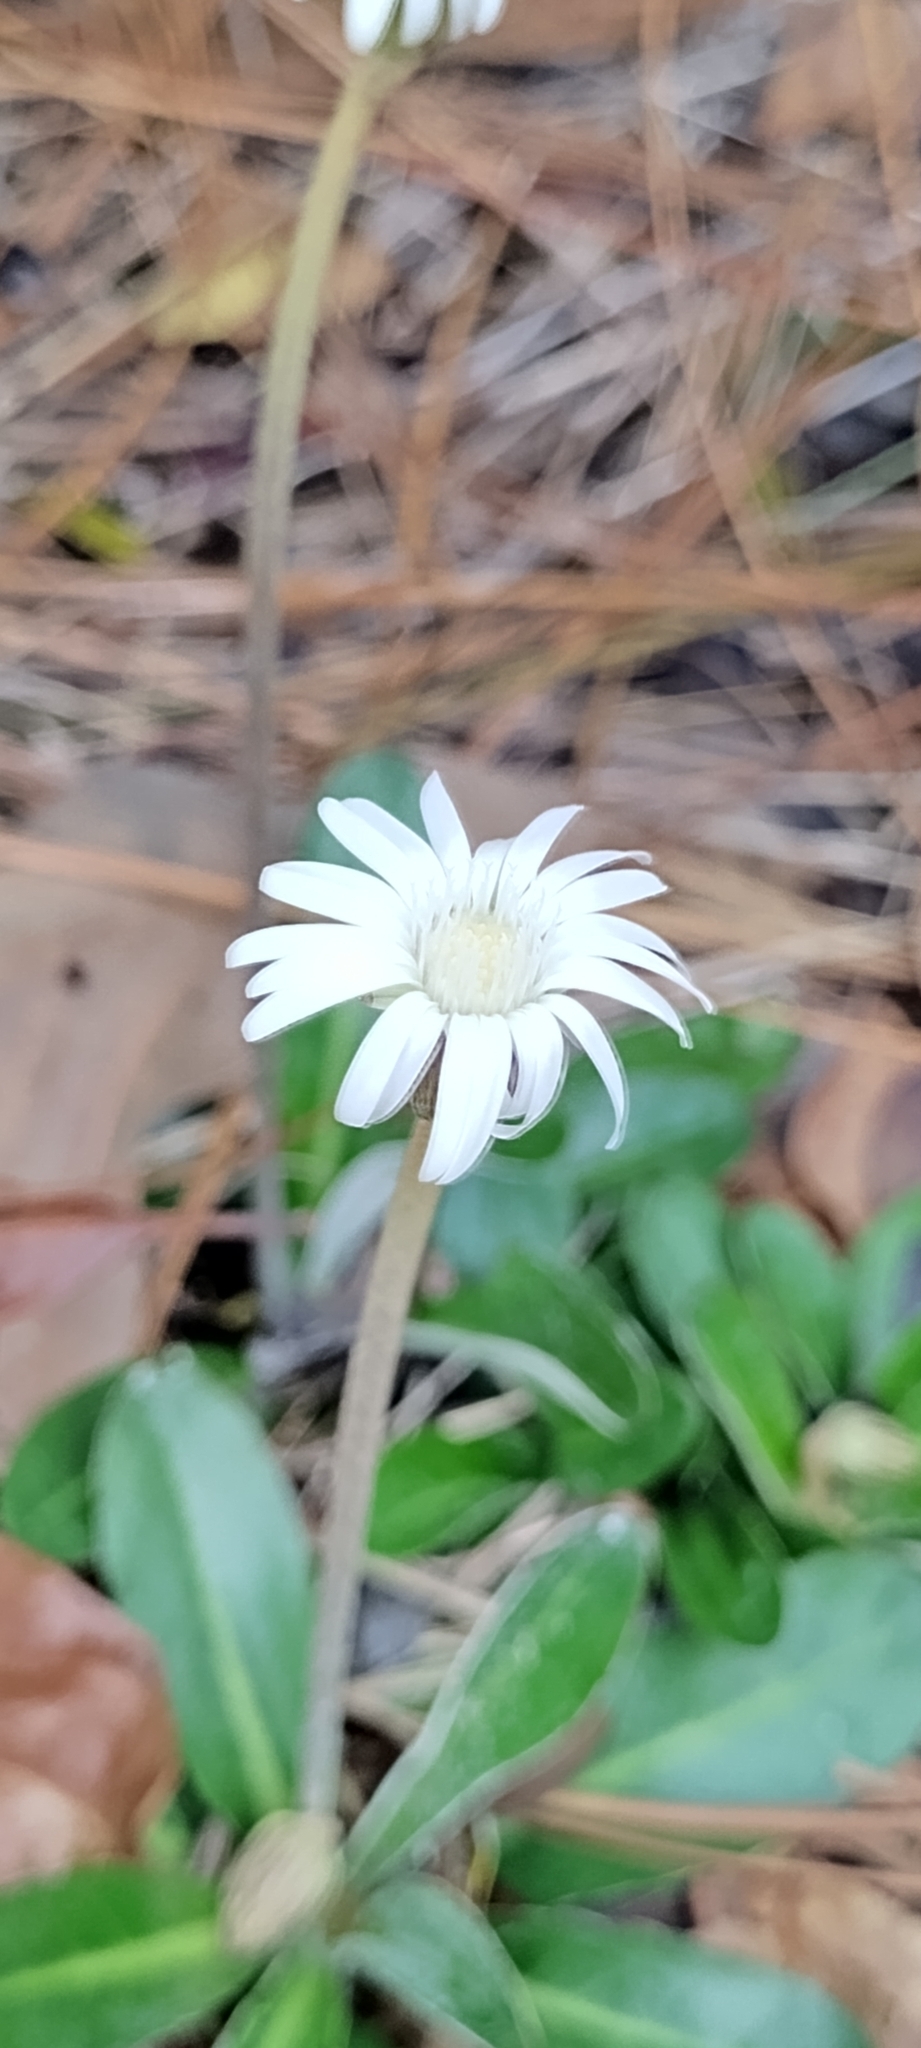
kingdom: Plantae
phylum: Tracheophyta
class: Magnoliopsida
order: Asterales
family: Asteraceae
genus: Chaptalia
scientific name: Chaptalia tomentosa
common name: Woolly sunbonnet
